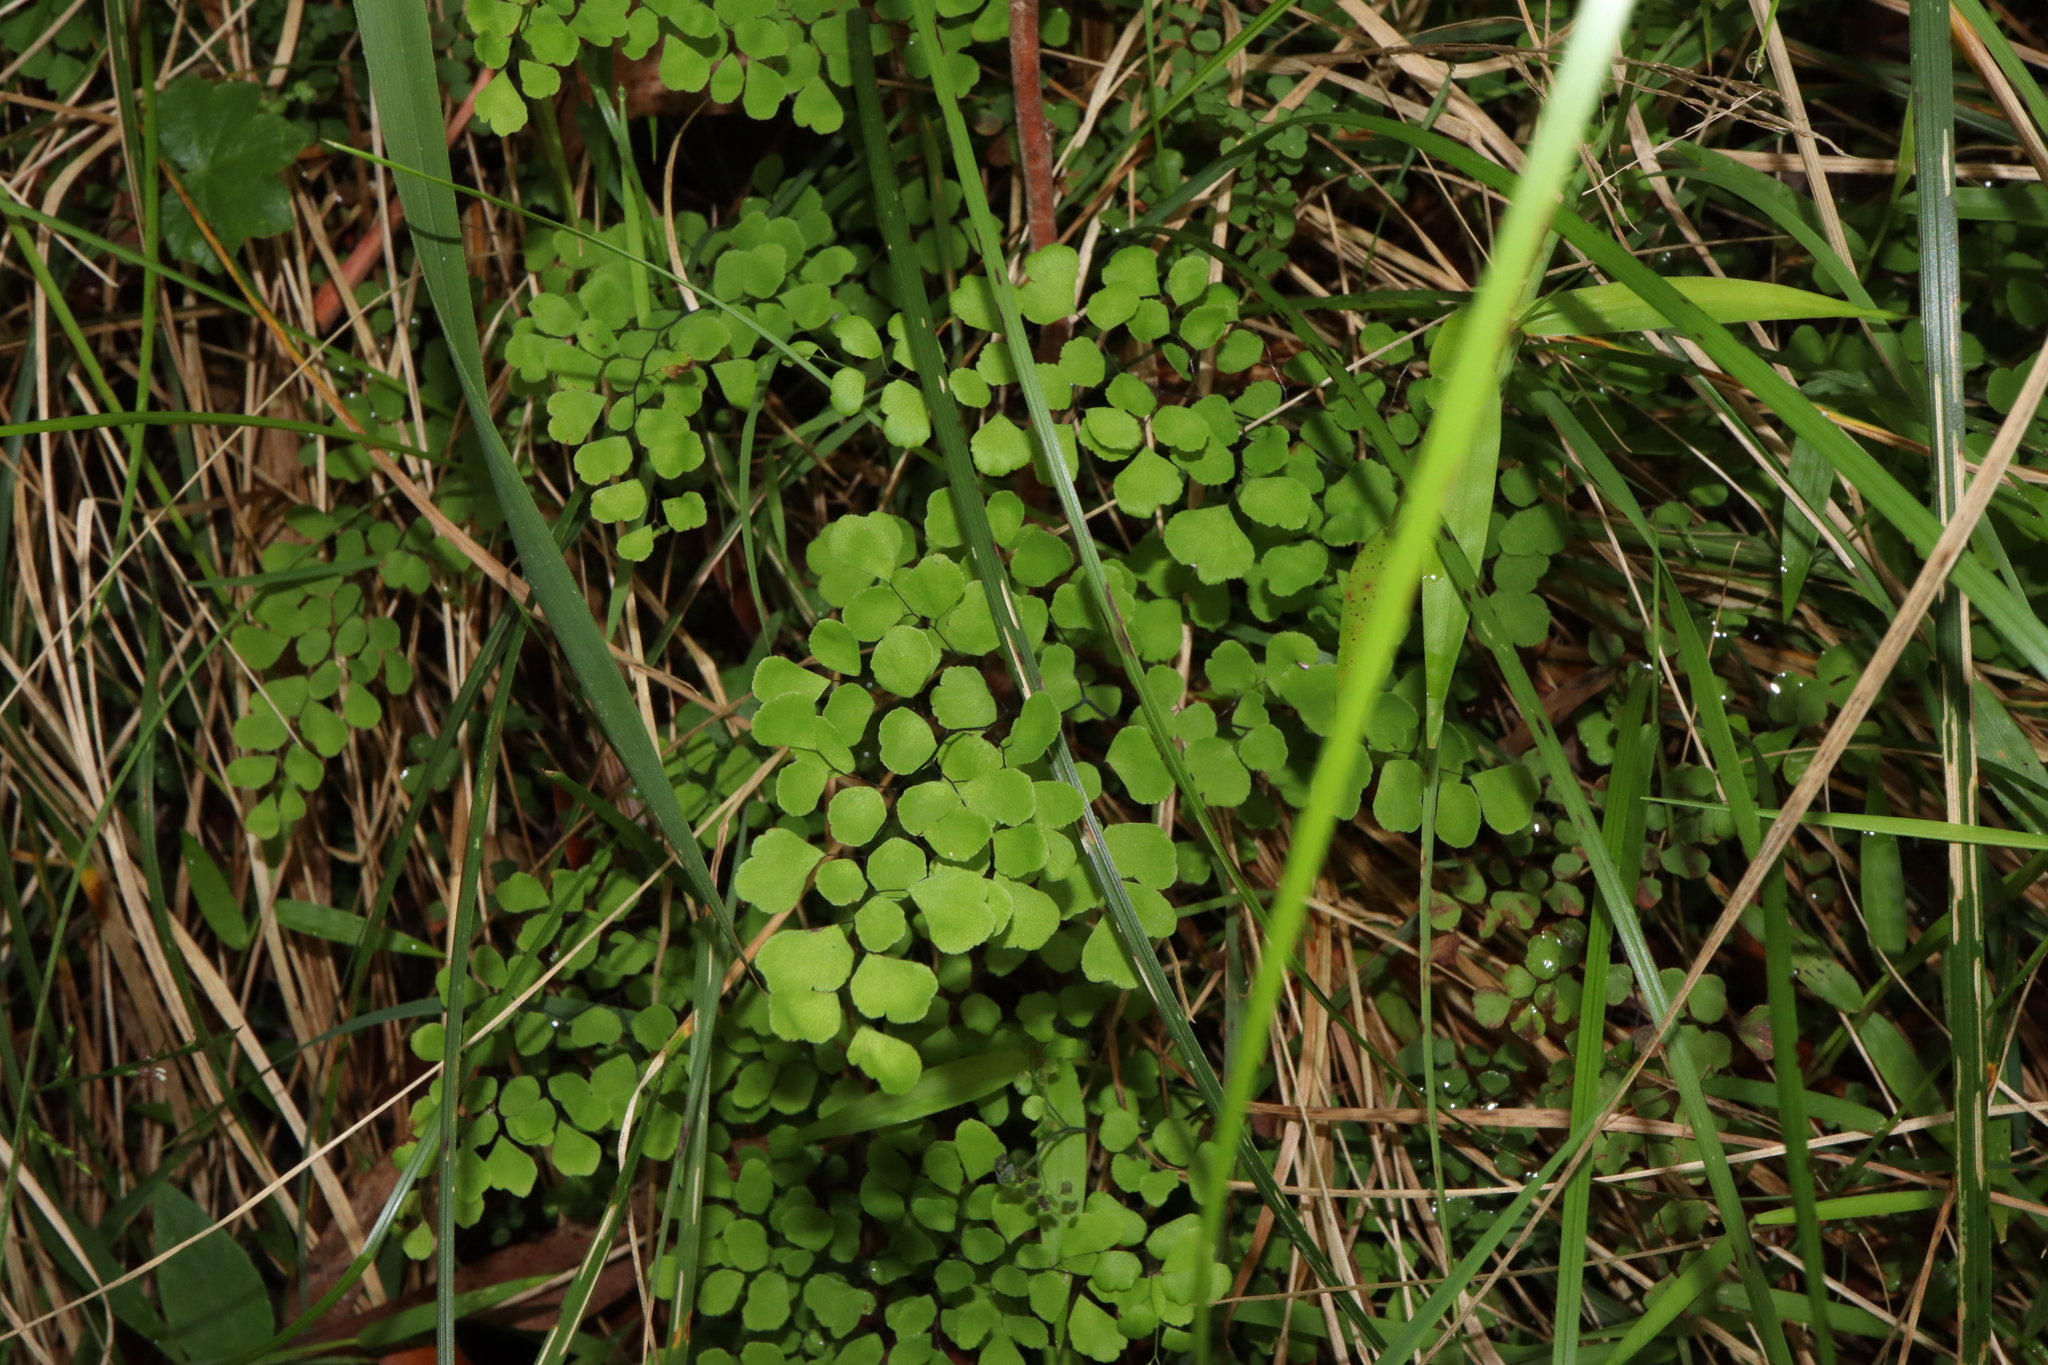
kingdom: Plantae
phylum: Tracheophyta
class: Polypodiopsida
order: Polypodiales
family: Pteridaceae
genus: Adiantum
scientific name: Adiantum aethiopicum
